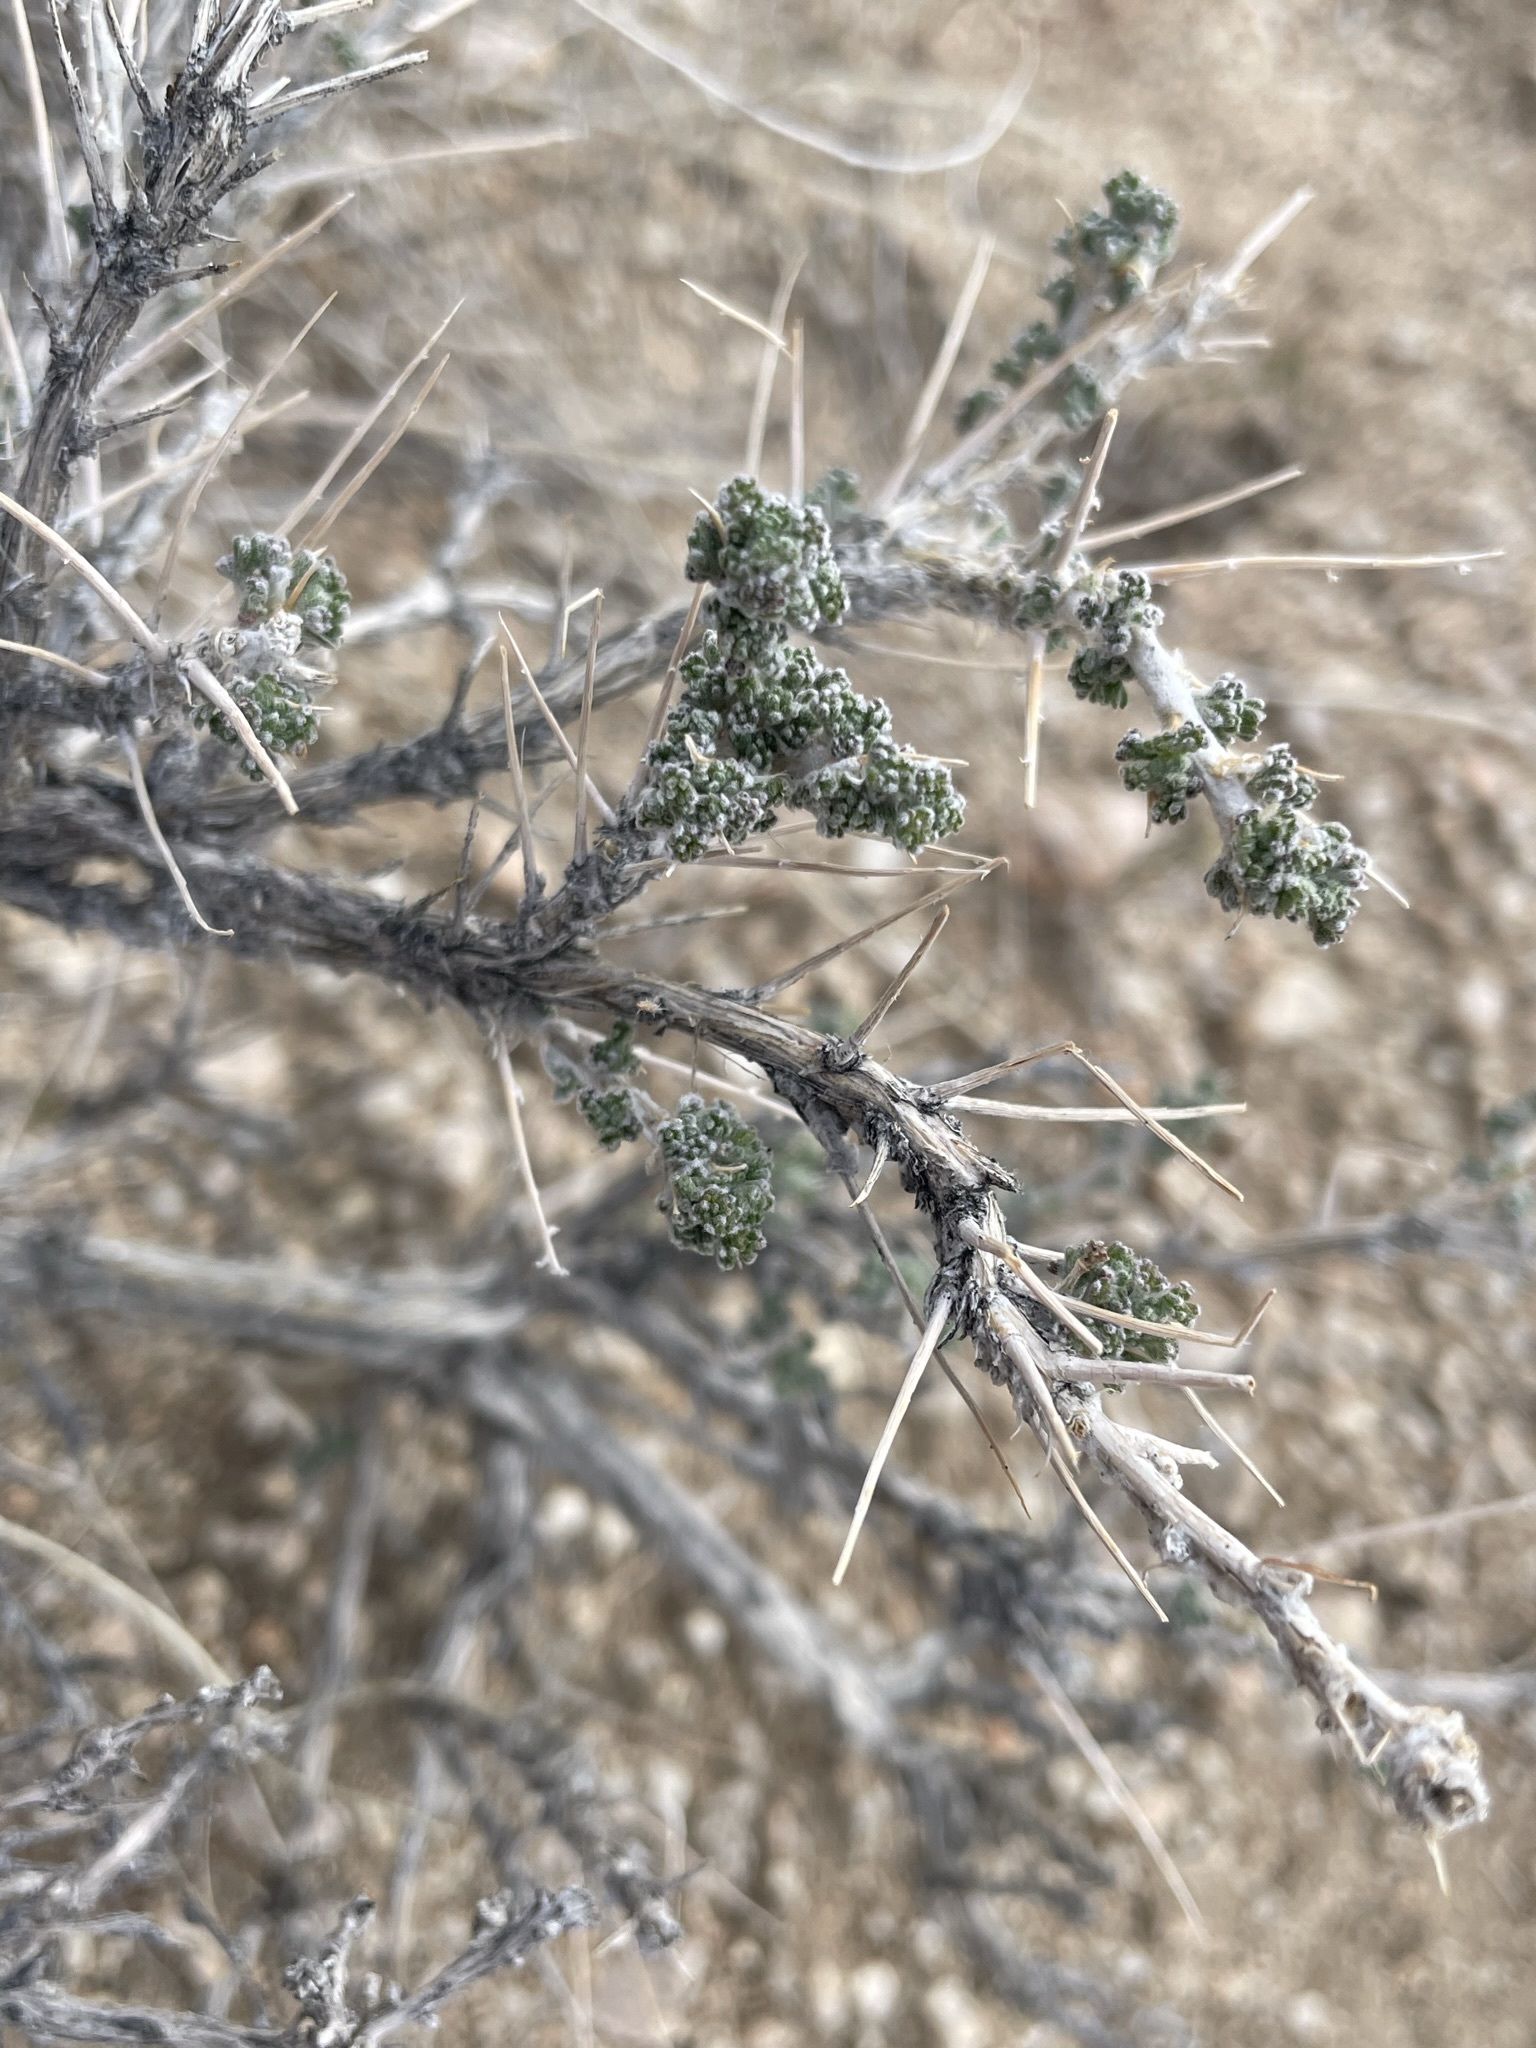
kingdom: Plantae
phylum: Tracheophyta
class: Magnoliopsida
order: Asterales
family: Asteraceae
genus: Artemisia
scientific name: Artemisia spinescens
